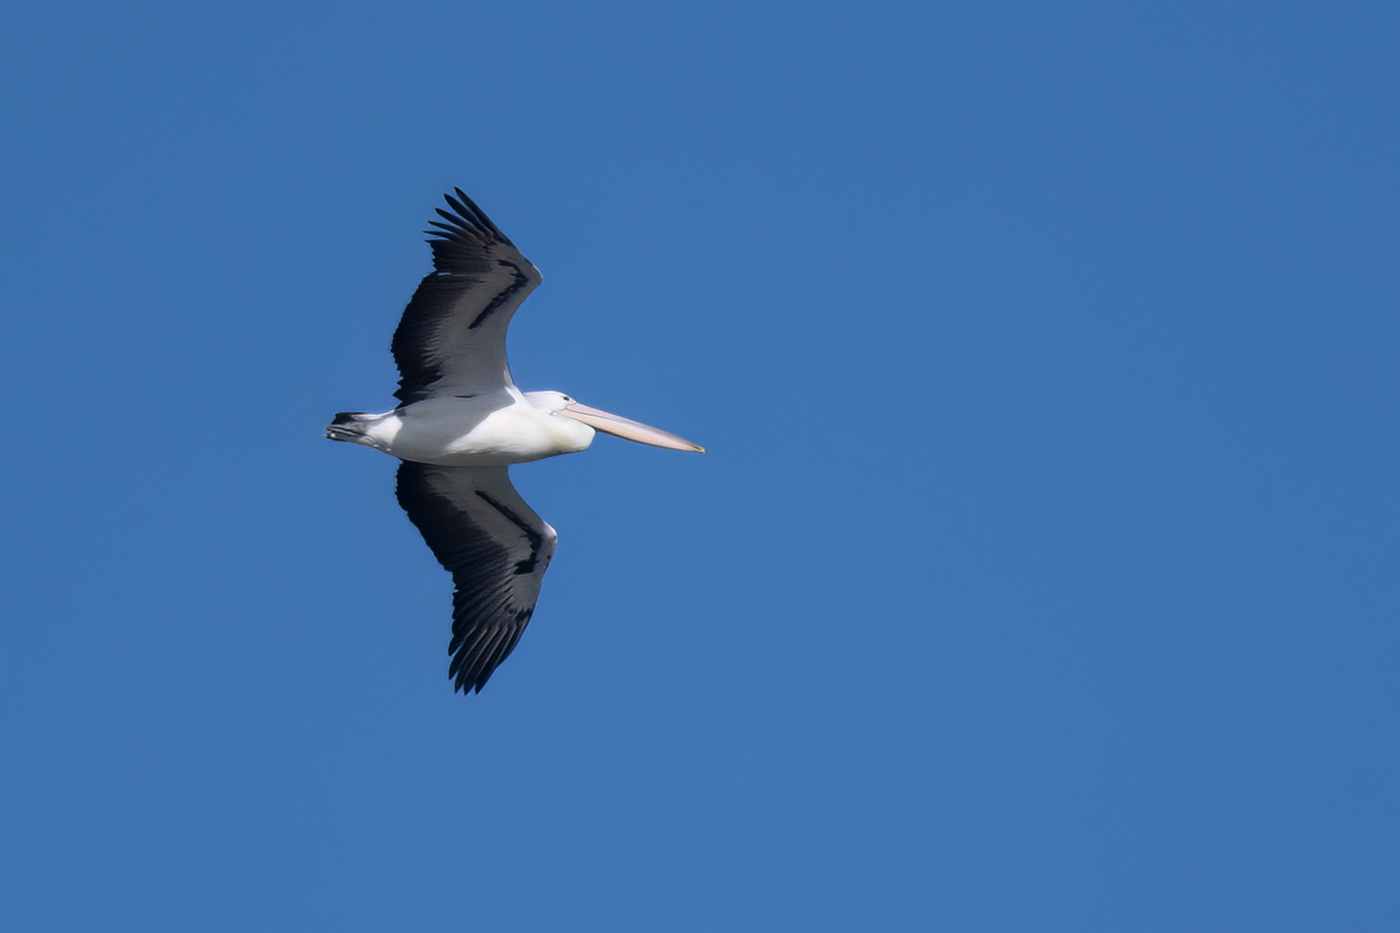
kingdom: Animalia
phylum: Chordata
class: Aves
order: Pelecaniformes
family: Pelecanidae
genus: Pelecanus
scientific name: Pelecanus conspicillatus
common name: Australian pelican
